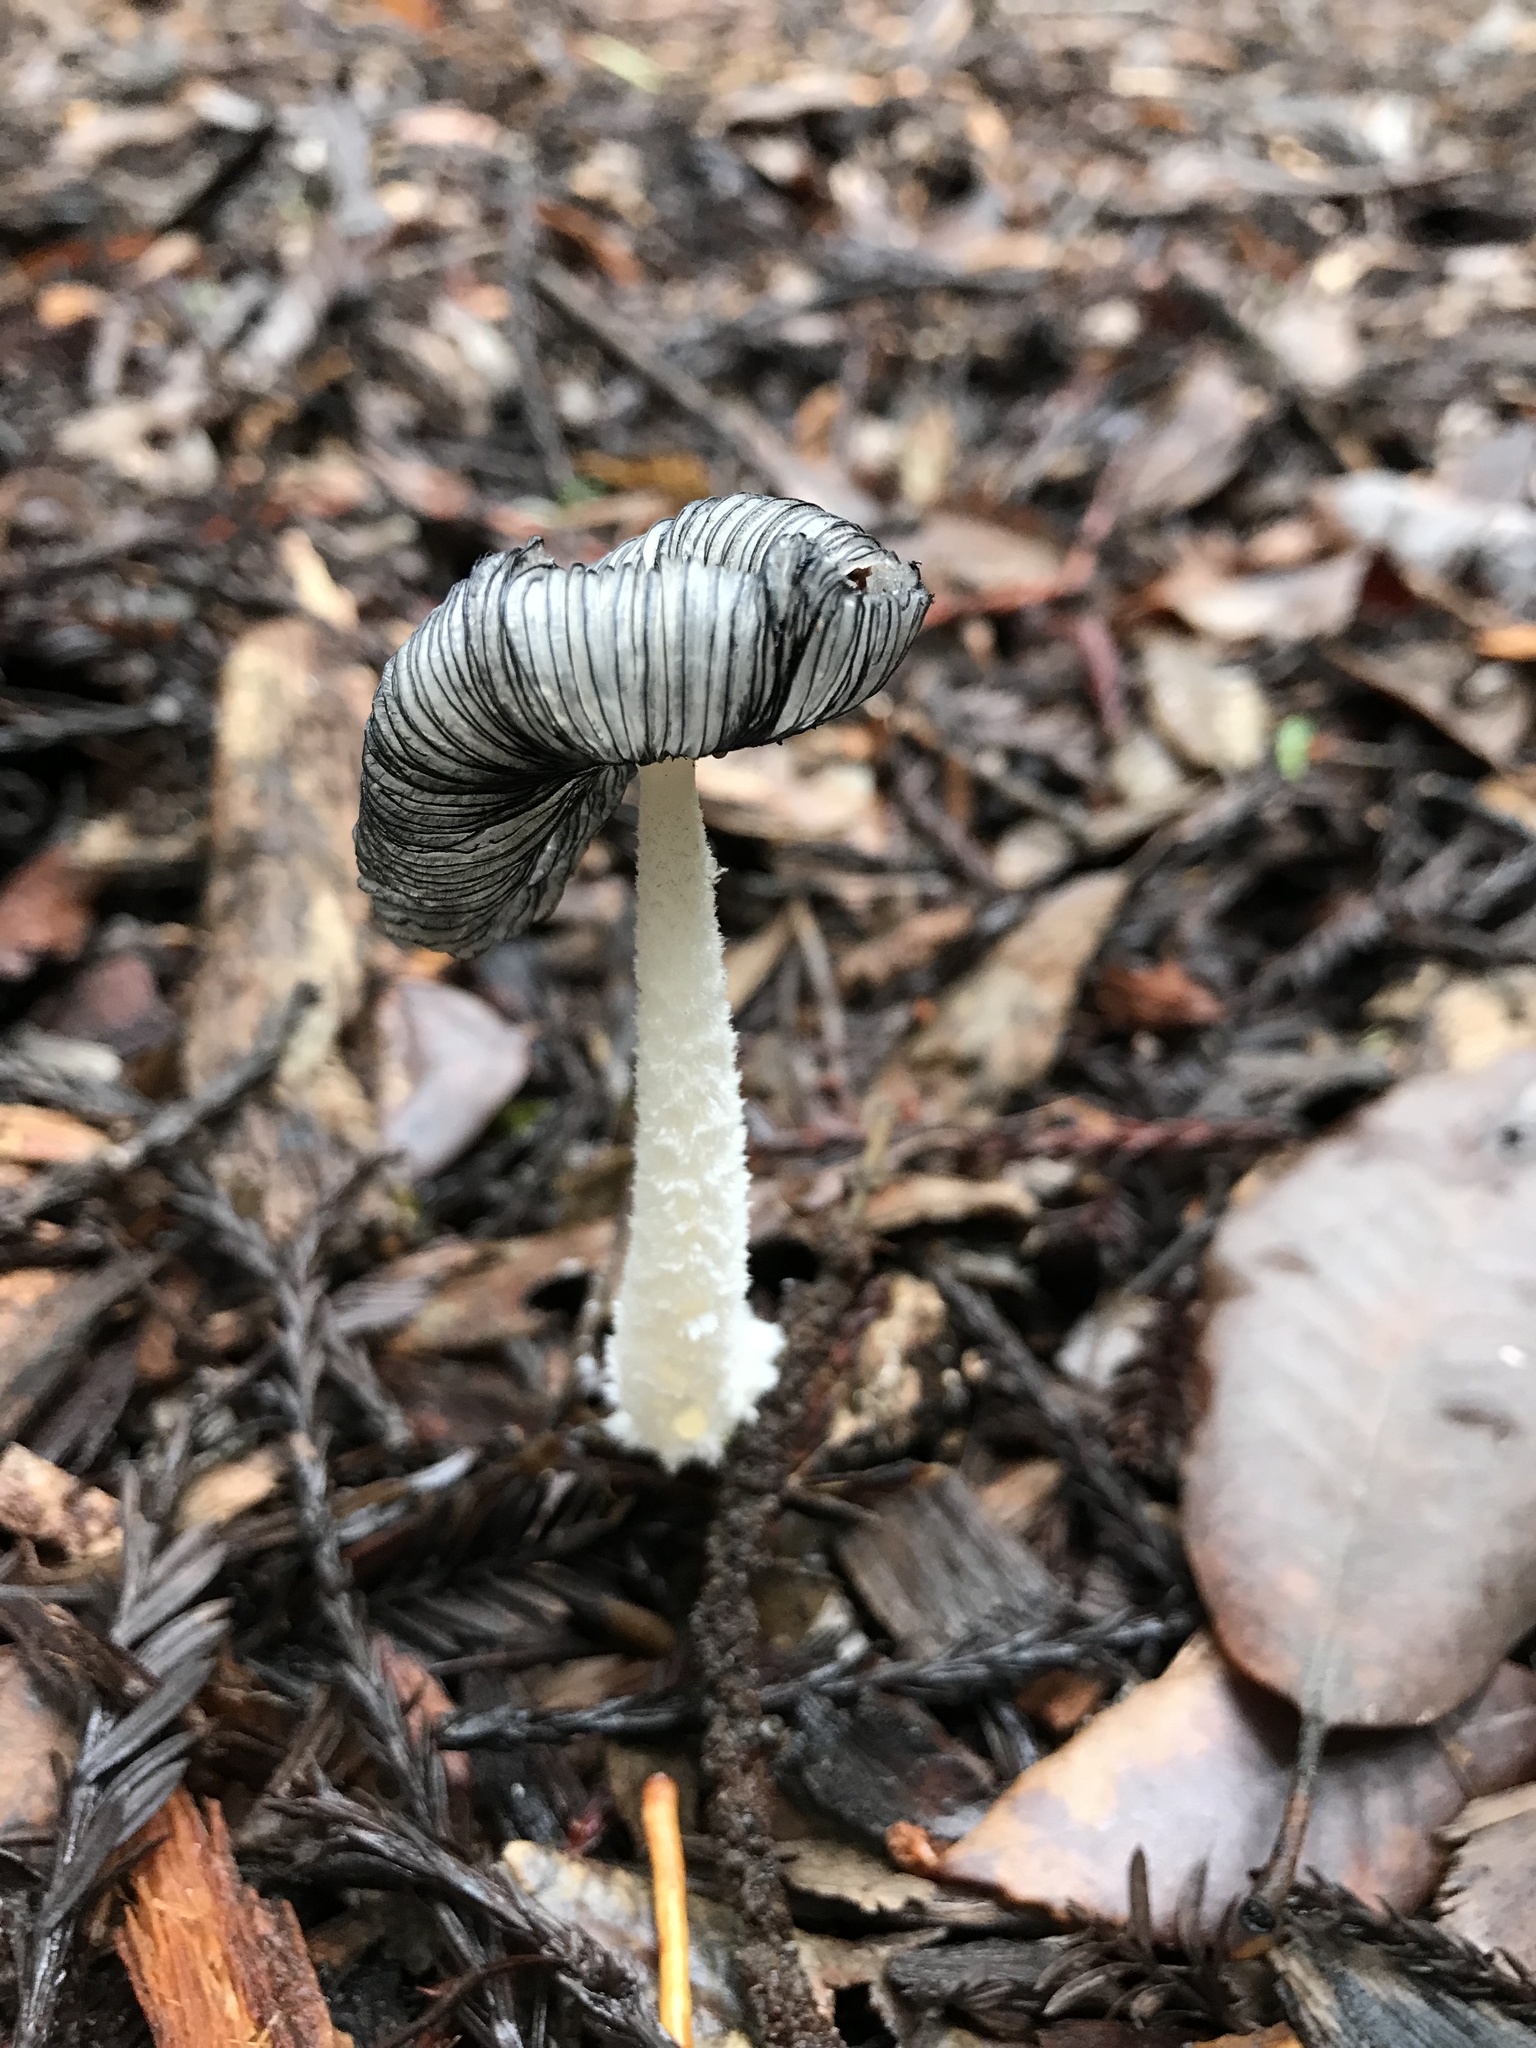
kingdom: Fungi
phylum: Basidiomycota
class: Agaricomycetes
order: Agaricales
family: Psathyrellaceae
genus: Coprinopsis
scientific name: Coprinopsis lagopus
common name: Hare'sfoot inkcap
